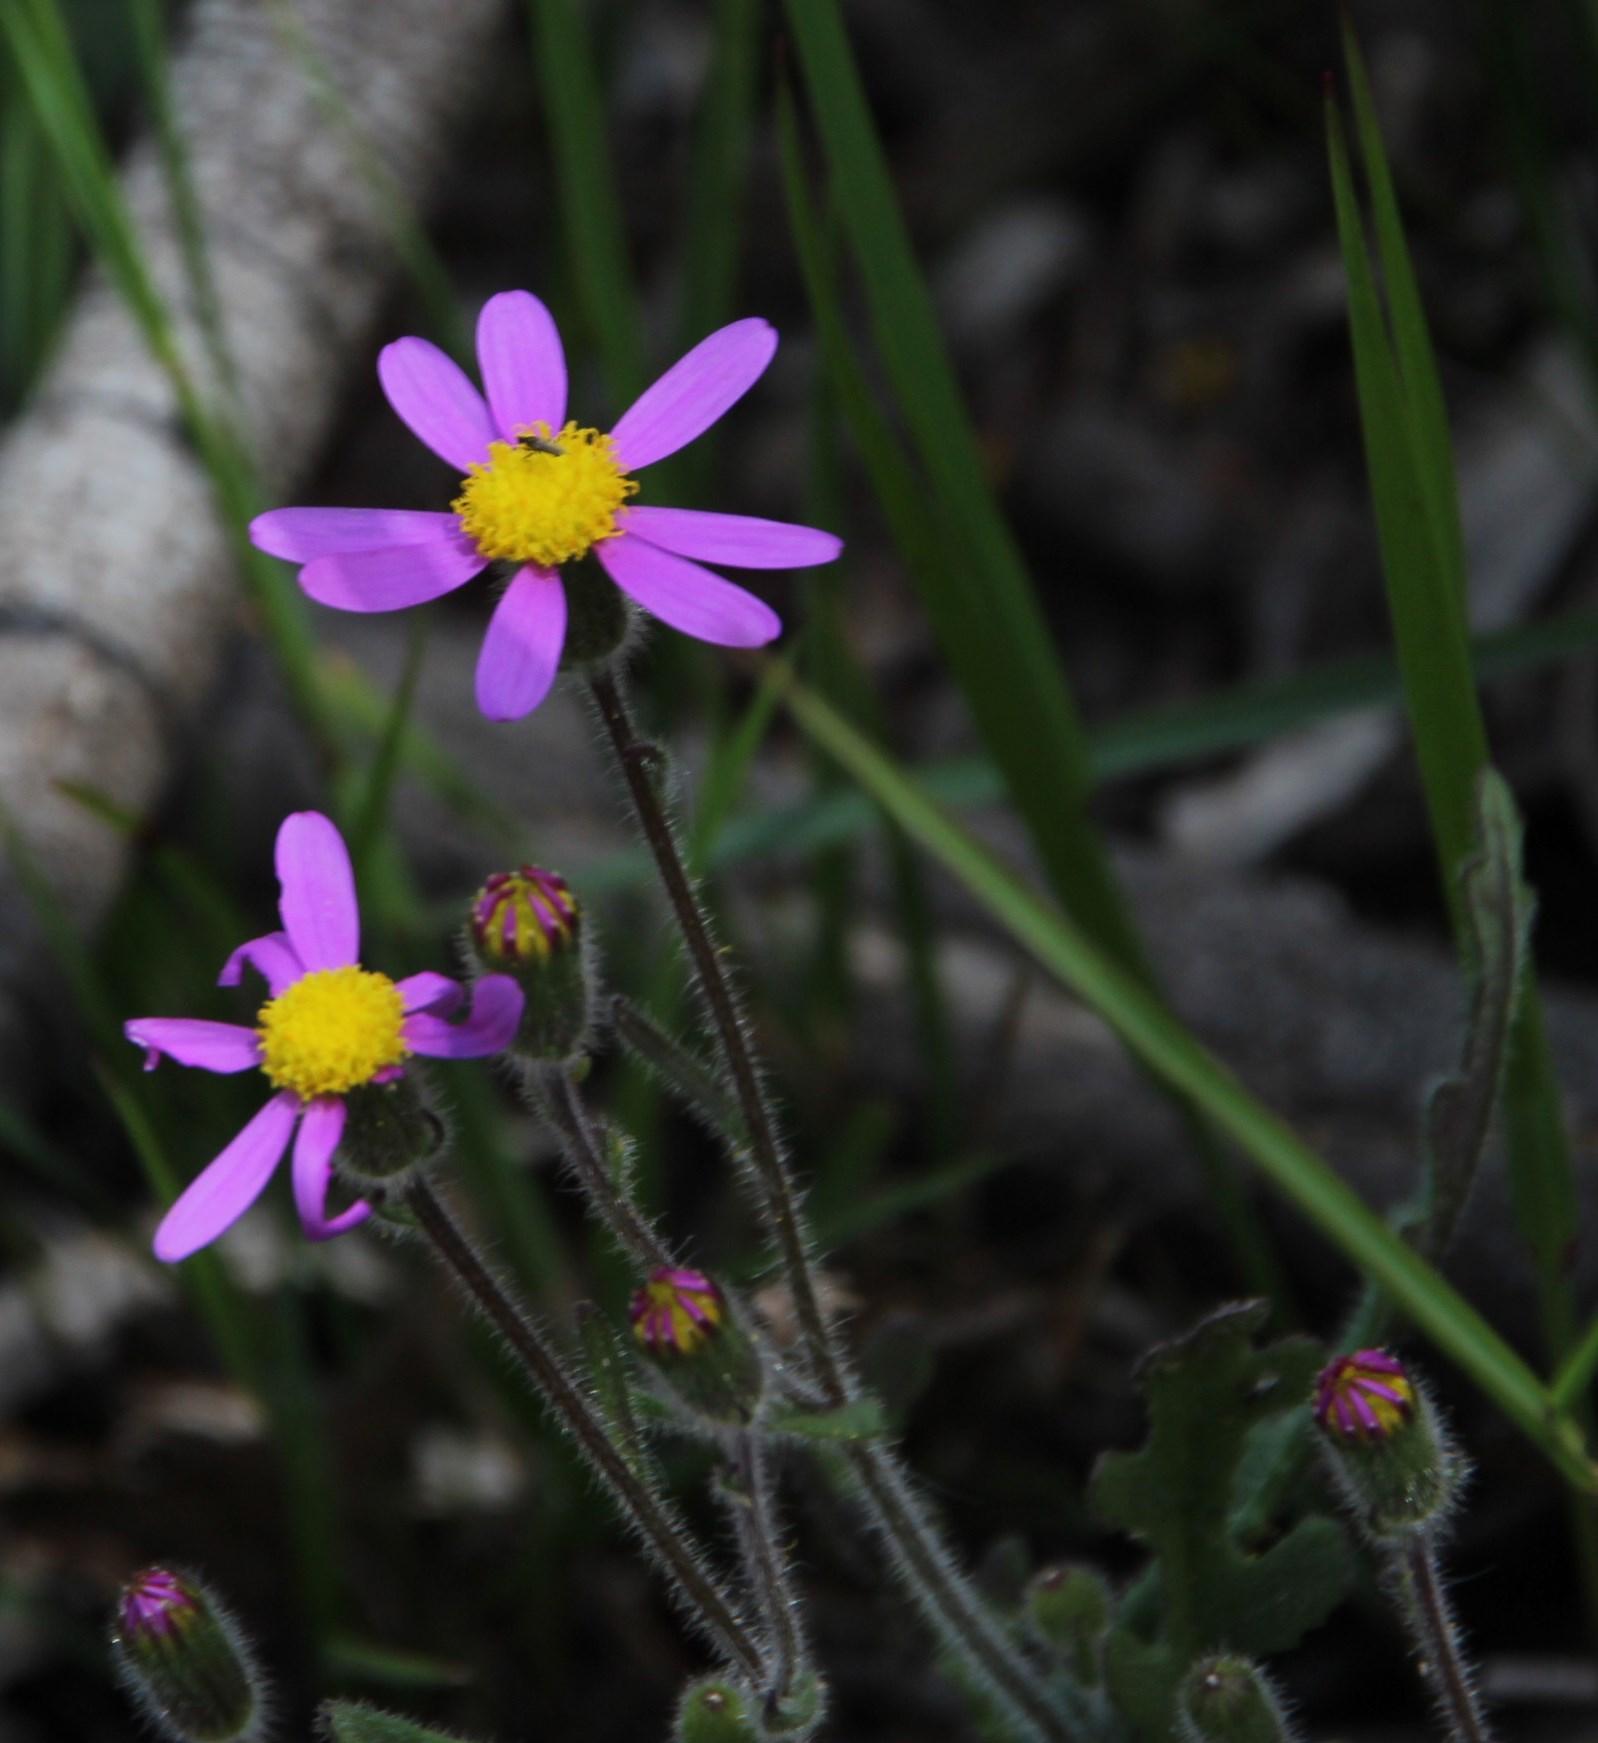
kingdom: Plantae
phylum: Tracheophyta
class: Magnoliopsida
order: Asterales
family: Asteraceae
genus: Senecio
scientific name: Senecio arenarius
